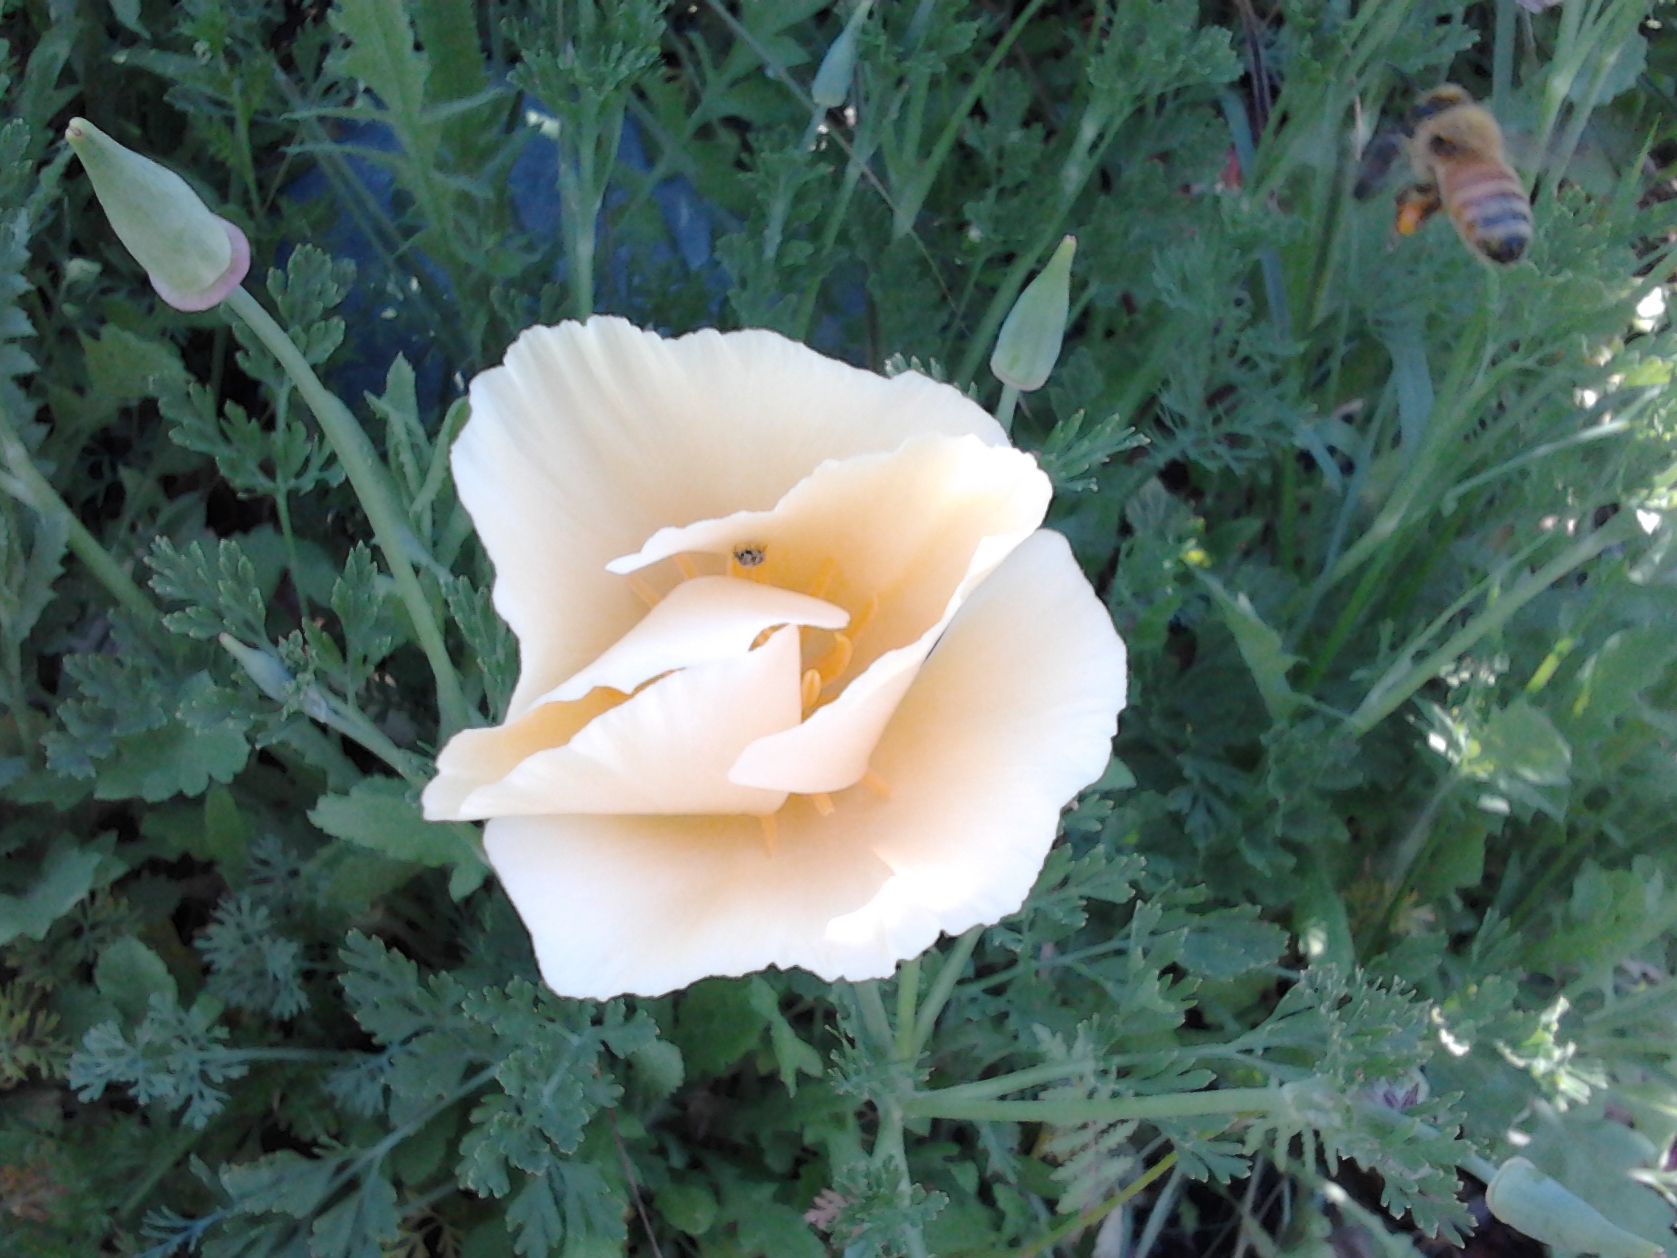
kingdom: Animalia
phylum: Arthropoda
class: Insecta
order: Hymenoptera
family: Apidae
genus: Apis
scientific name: Apis mellifera
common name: Honey bee
